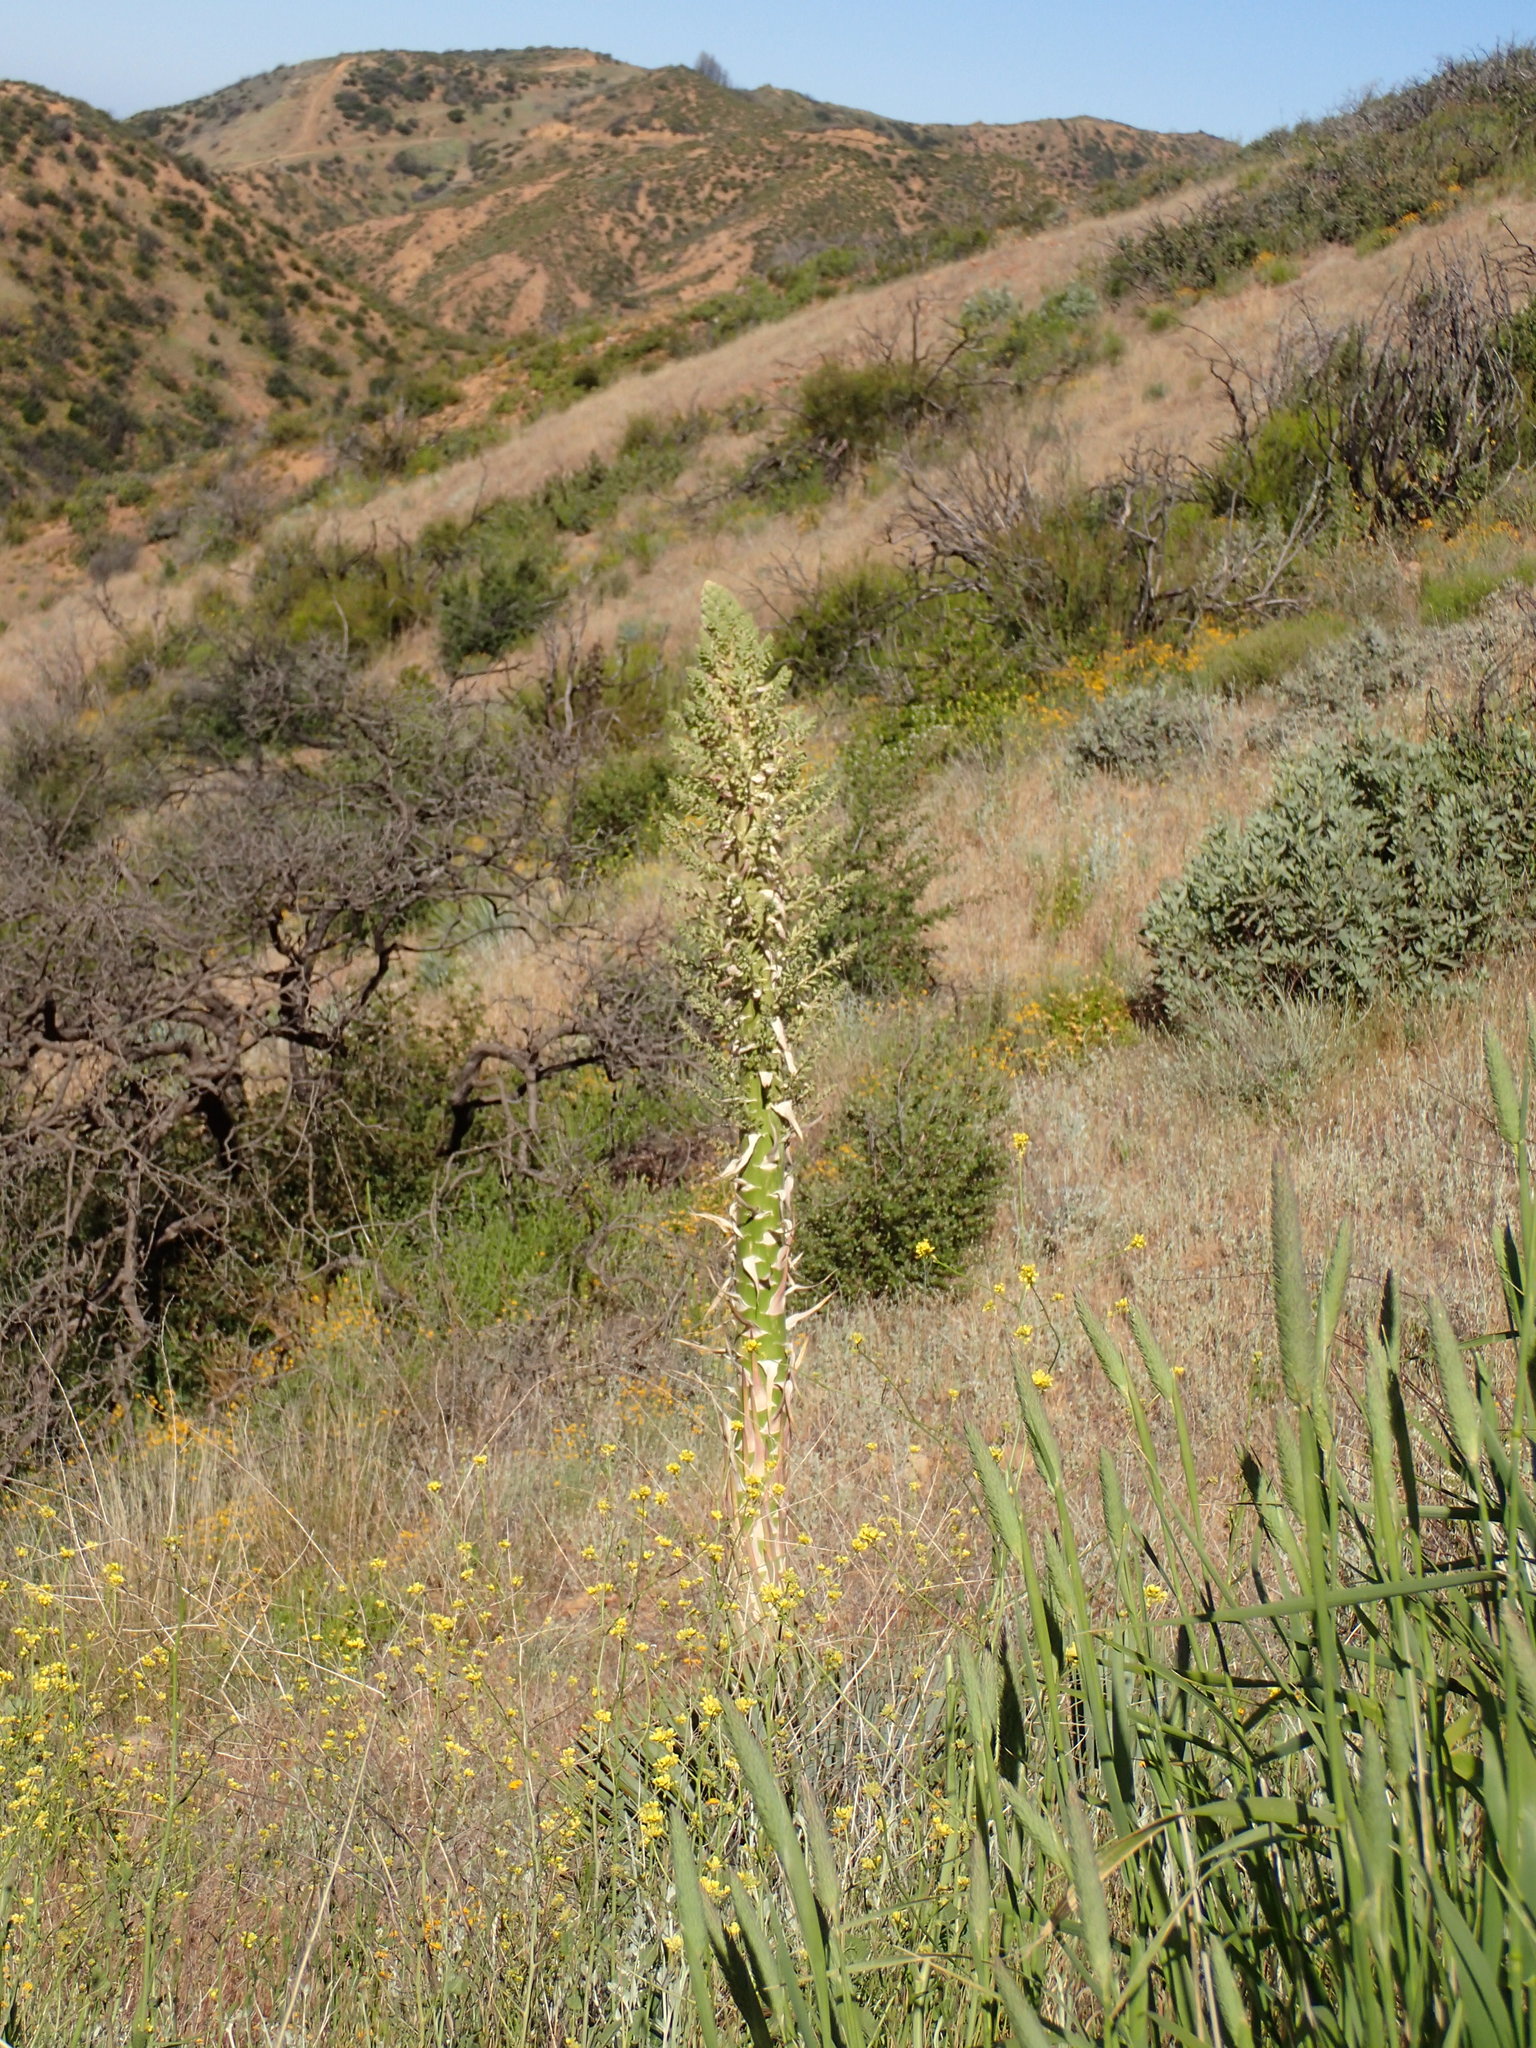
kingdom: Plantae
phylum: Tracheophyta
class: Liliopsida
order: Asparagales
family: Asparagaceae
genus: Hesperoyucca
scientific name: Hesperoyucca whipplei
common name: Our lord's-candle
